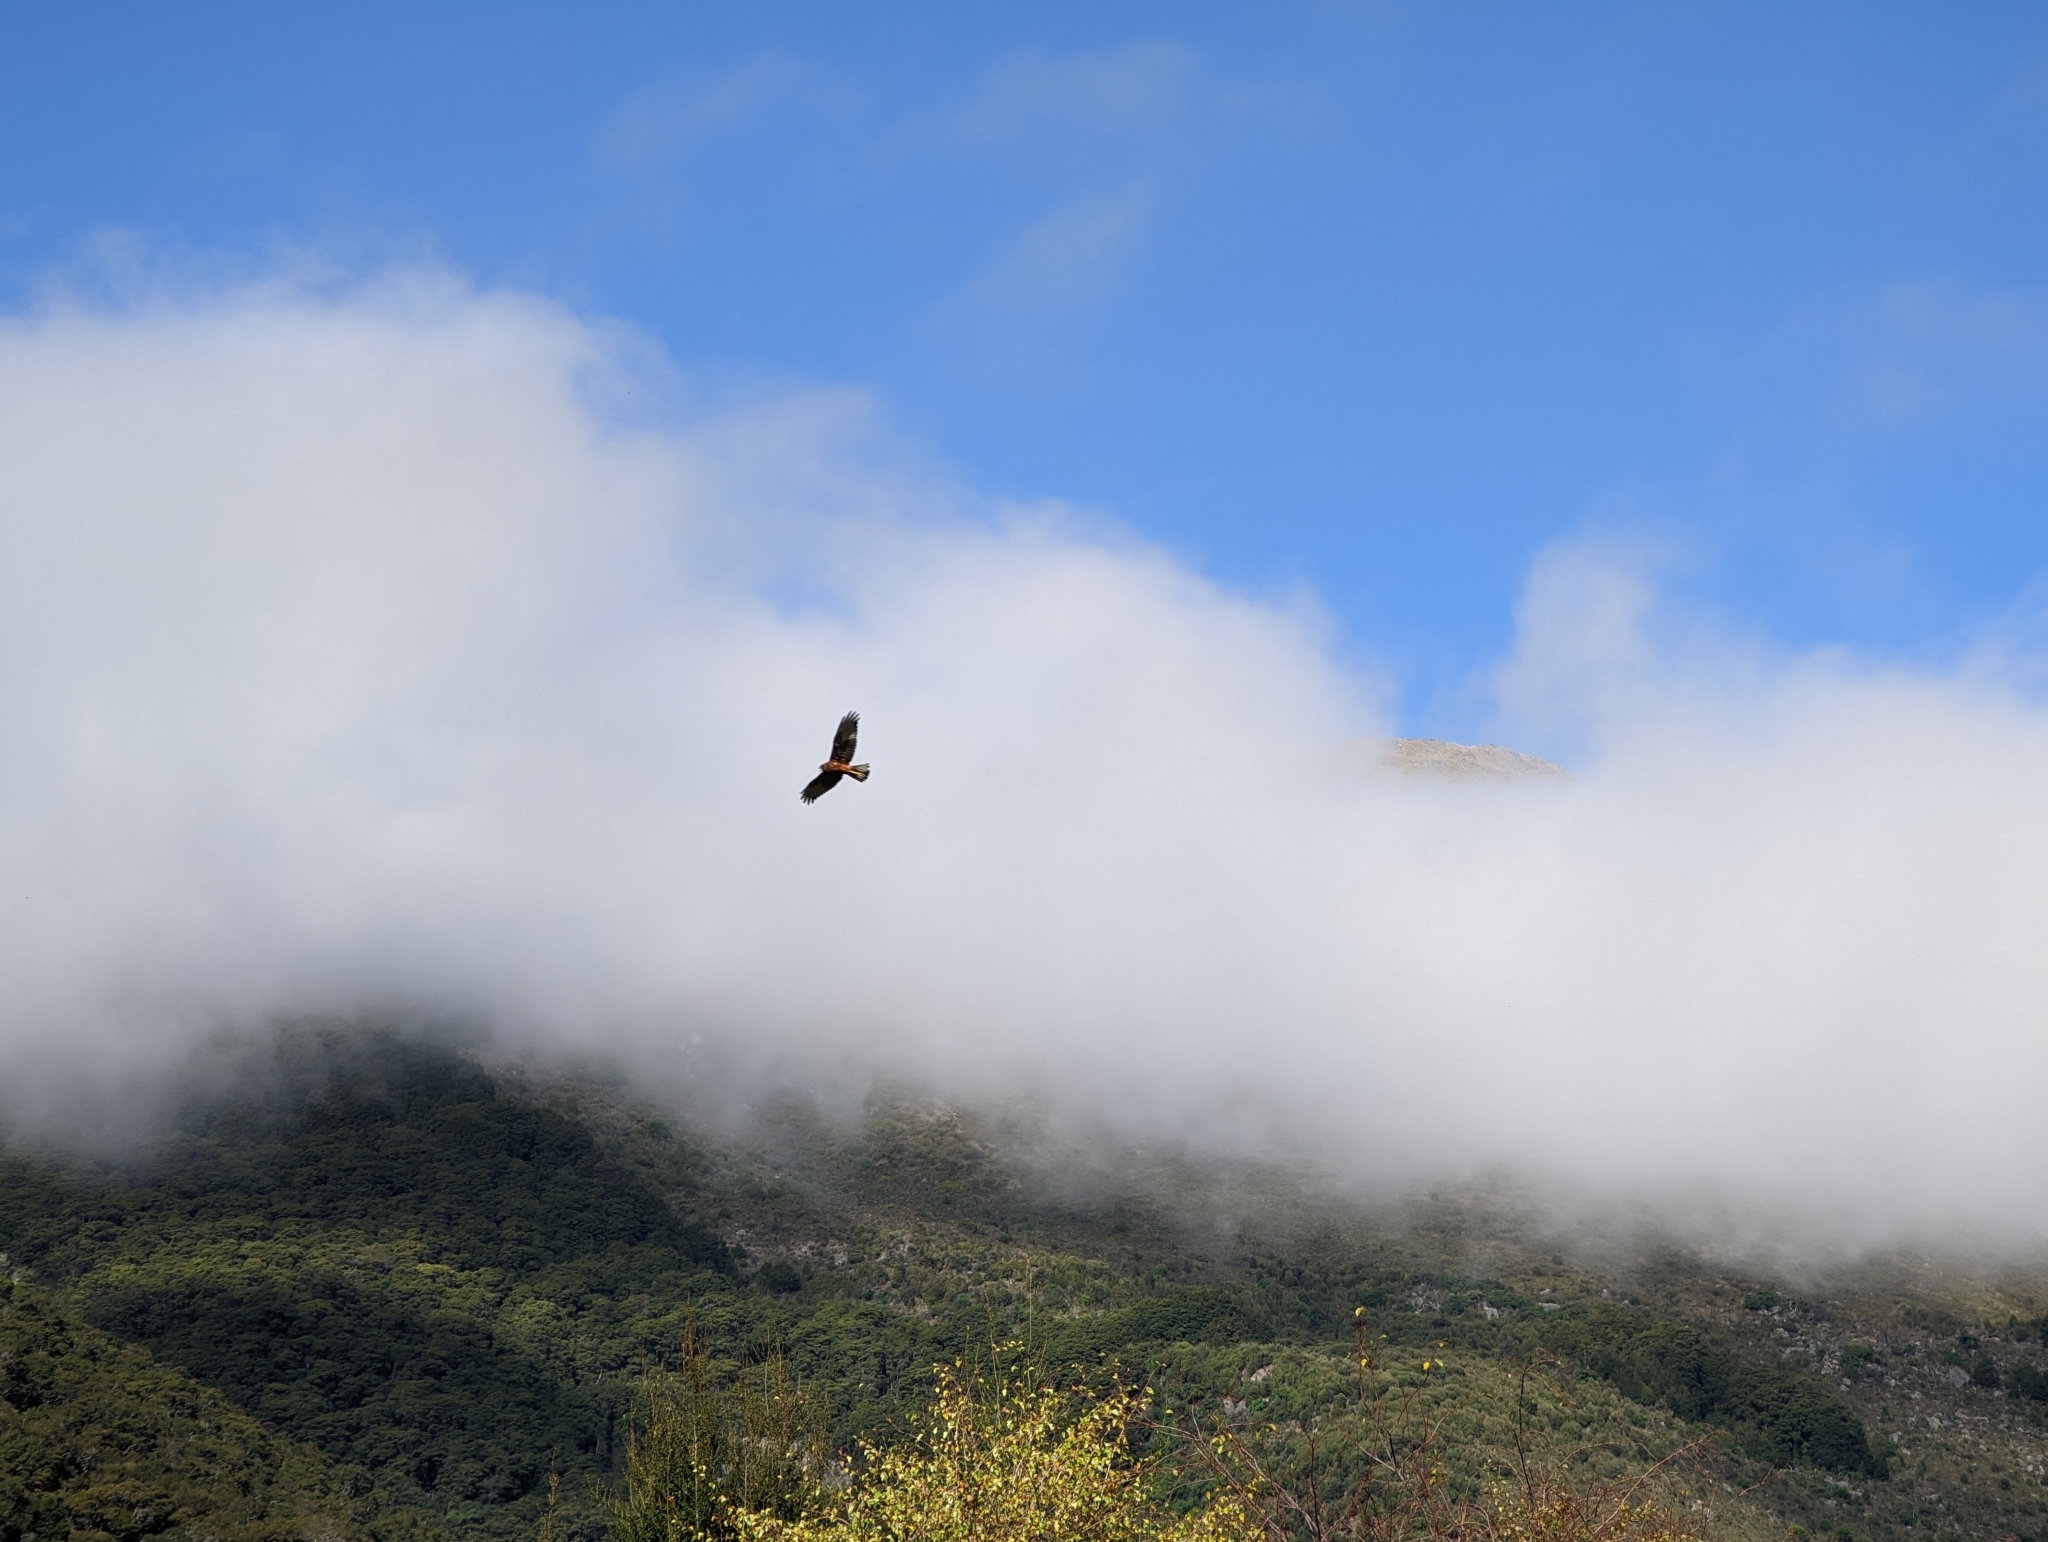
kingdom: Animalia
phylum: Chordata
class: Aves
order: Accipitriformes
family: Accipitridae
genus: Circus
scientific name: Circus approximans
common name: Swamp harrier
